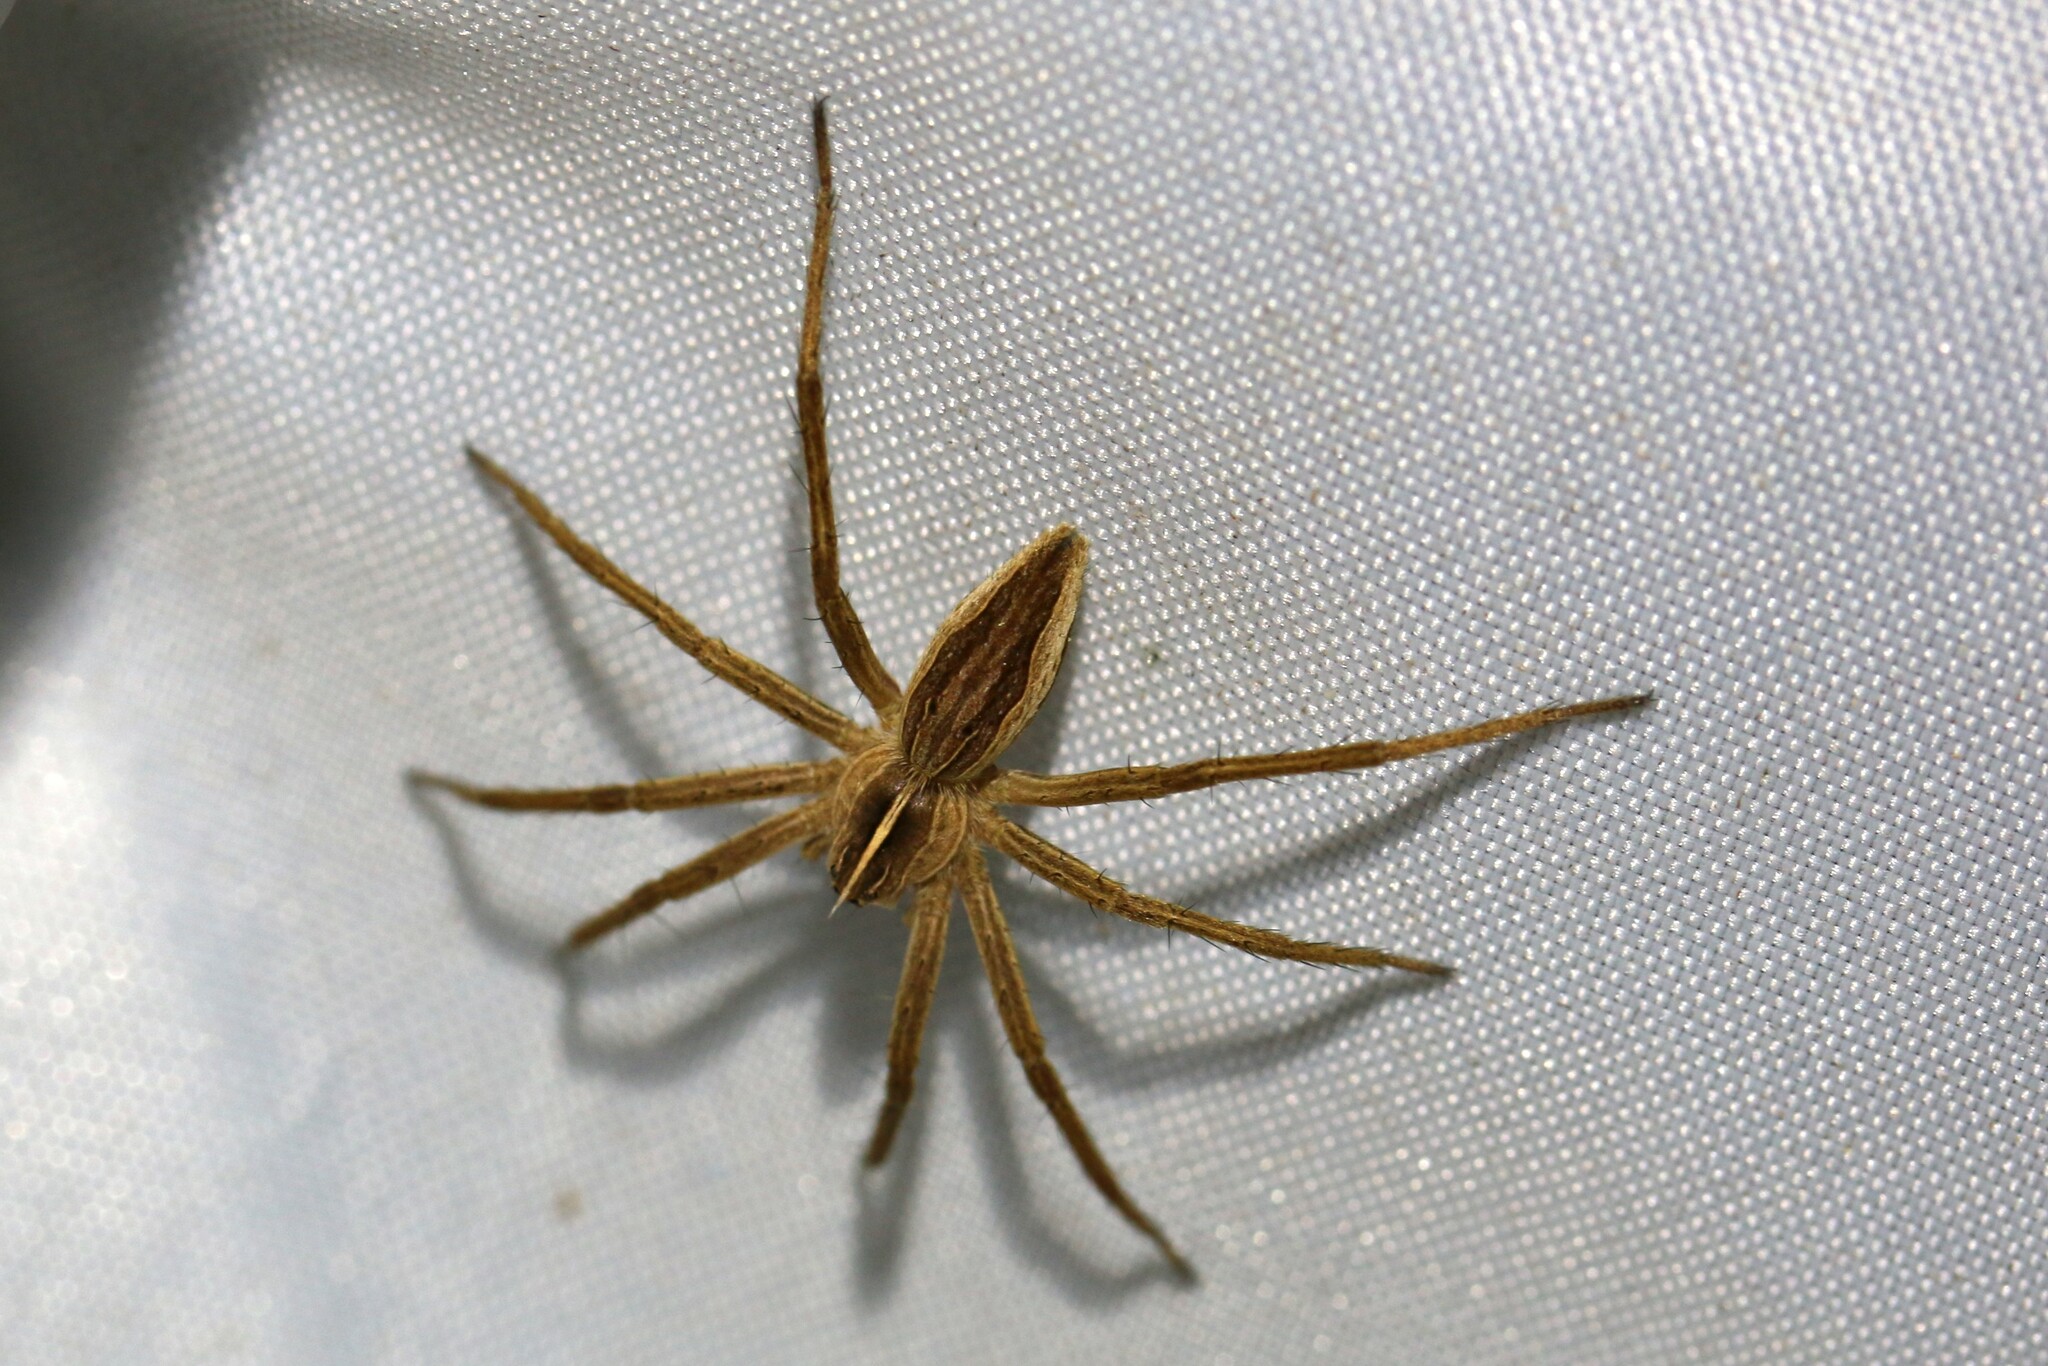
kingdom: Animalia
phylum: Arthropoda
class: Arachnida
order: Araneae
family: Pisauridae
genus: Pisaura
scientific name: Pisaura mirabilis
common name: Tent spider
